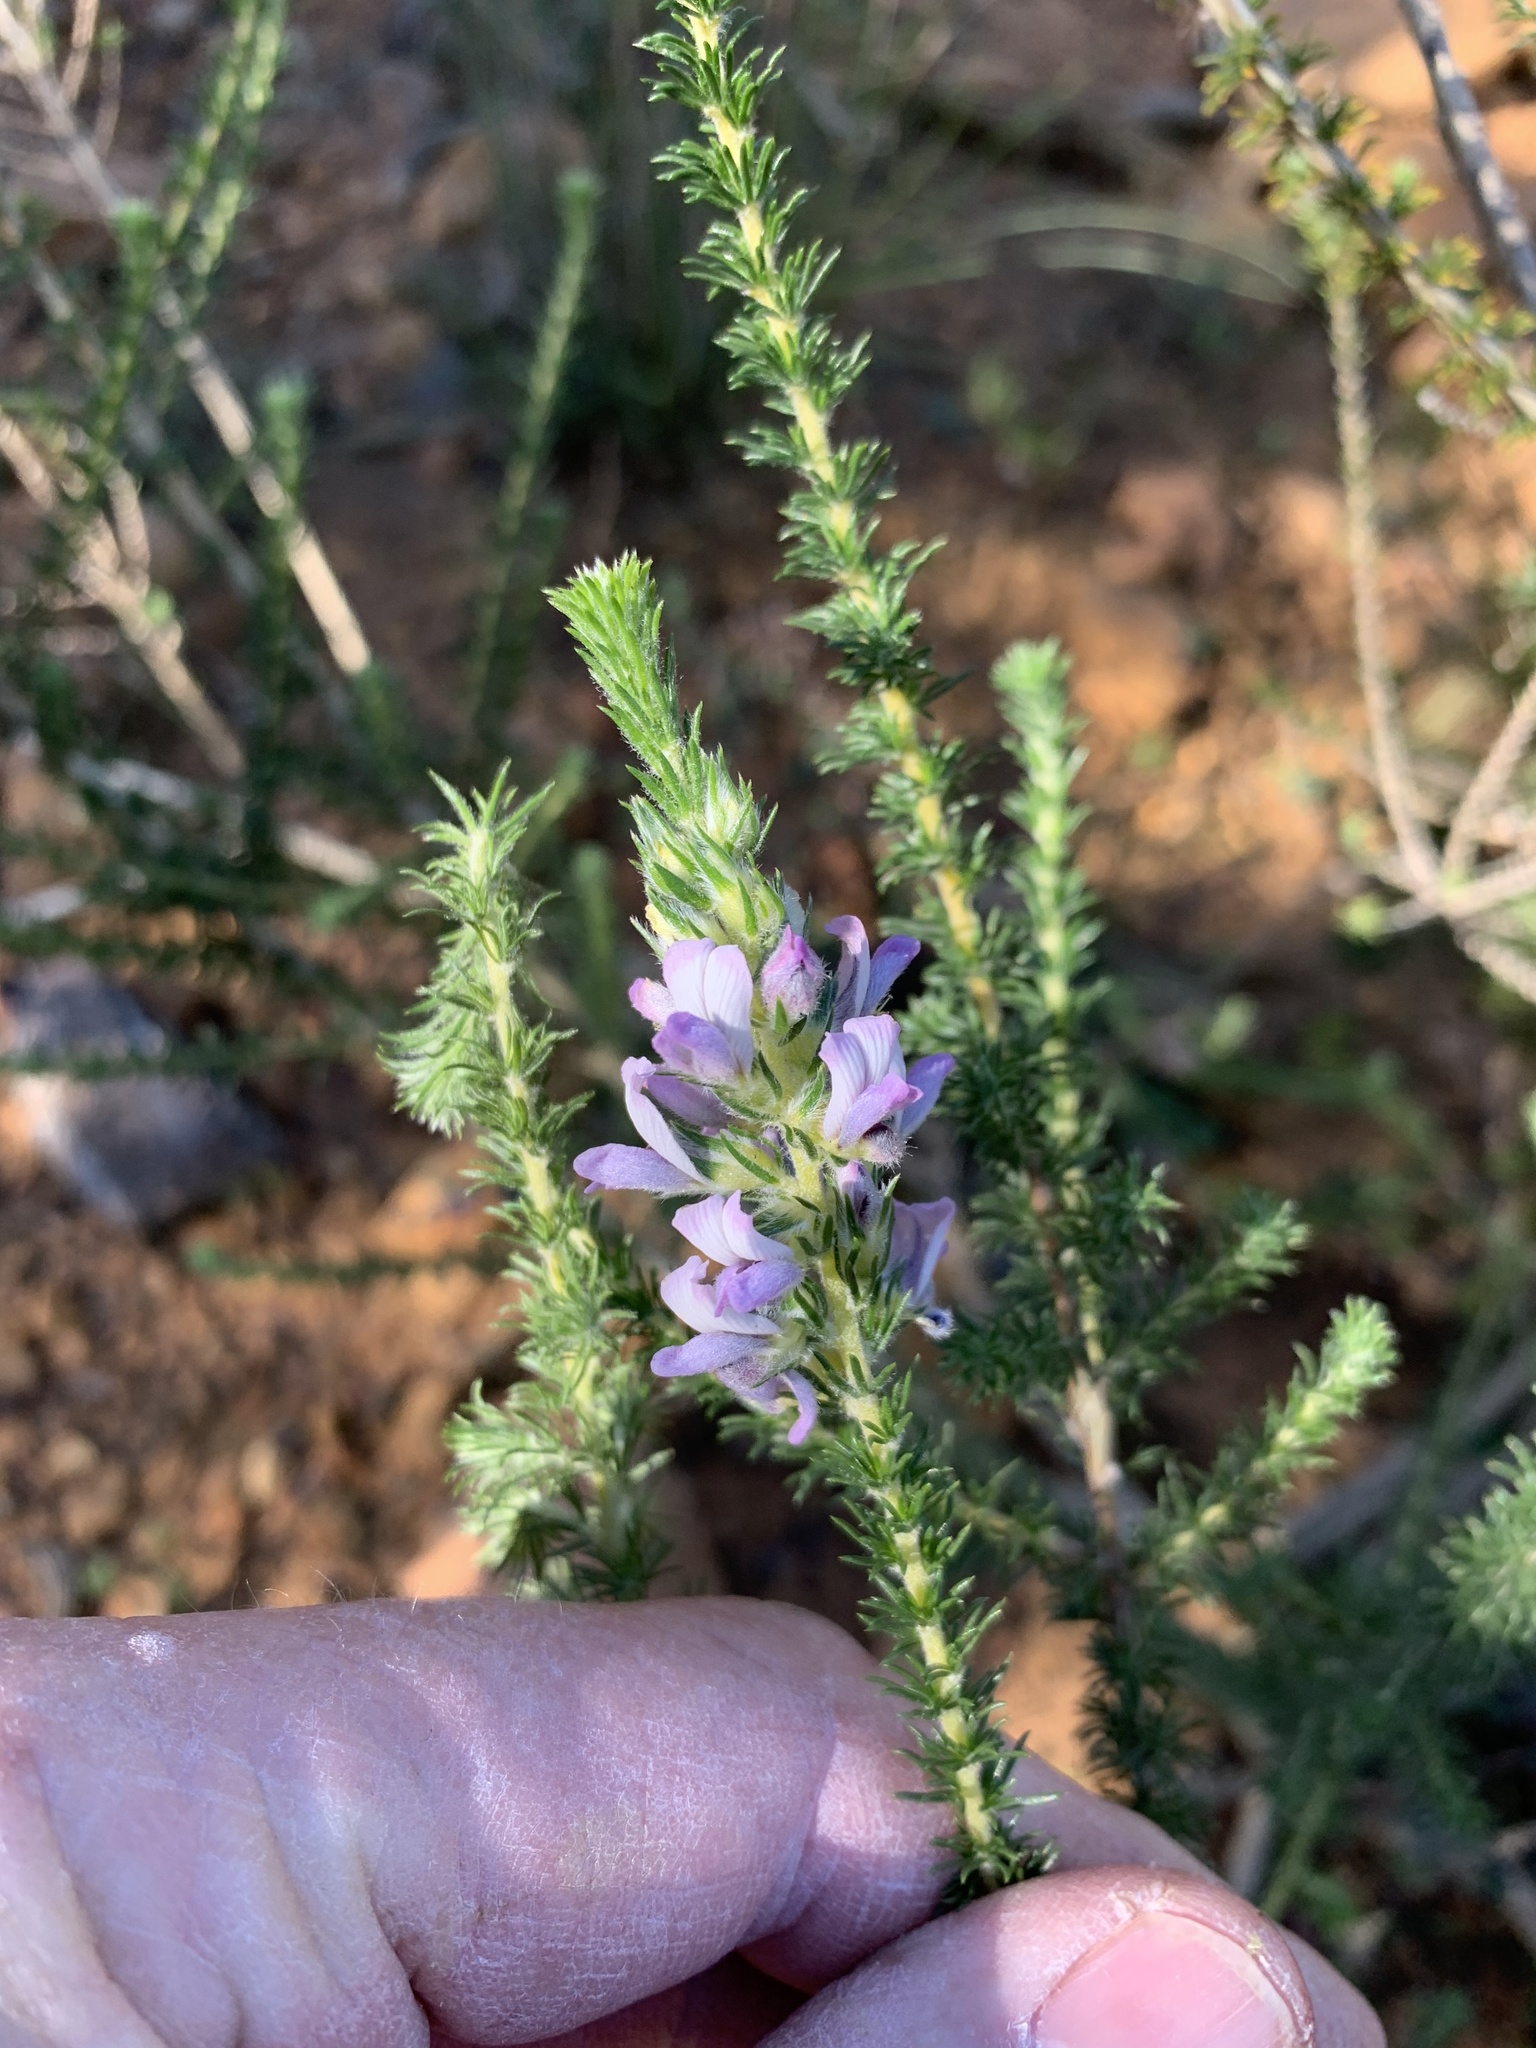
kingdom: Plantae
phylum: Tracheophyta
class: Magnoliopsida
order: Fabales
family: Fabaceae
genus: Aspalathus
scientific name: Aspalathus cephalotes
